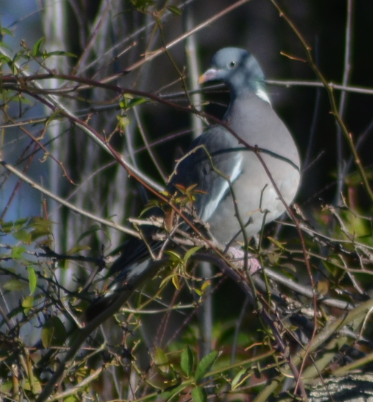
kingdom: Animalia
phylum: Chordata
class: Aves
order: Columbiformes
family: Columbidae
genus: Columba
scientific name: Columba palumbus
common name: Common wood pigeon
